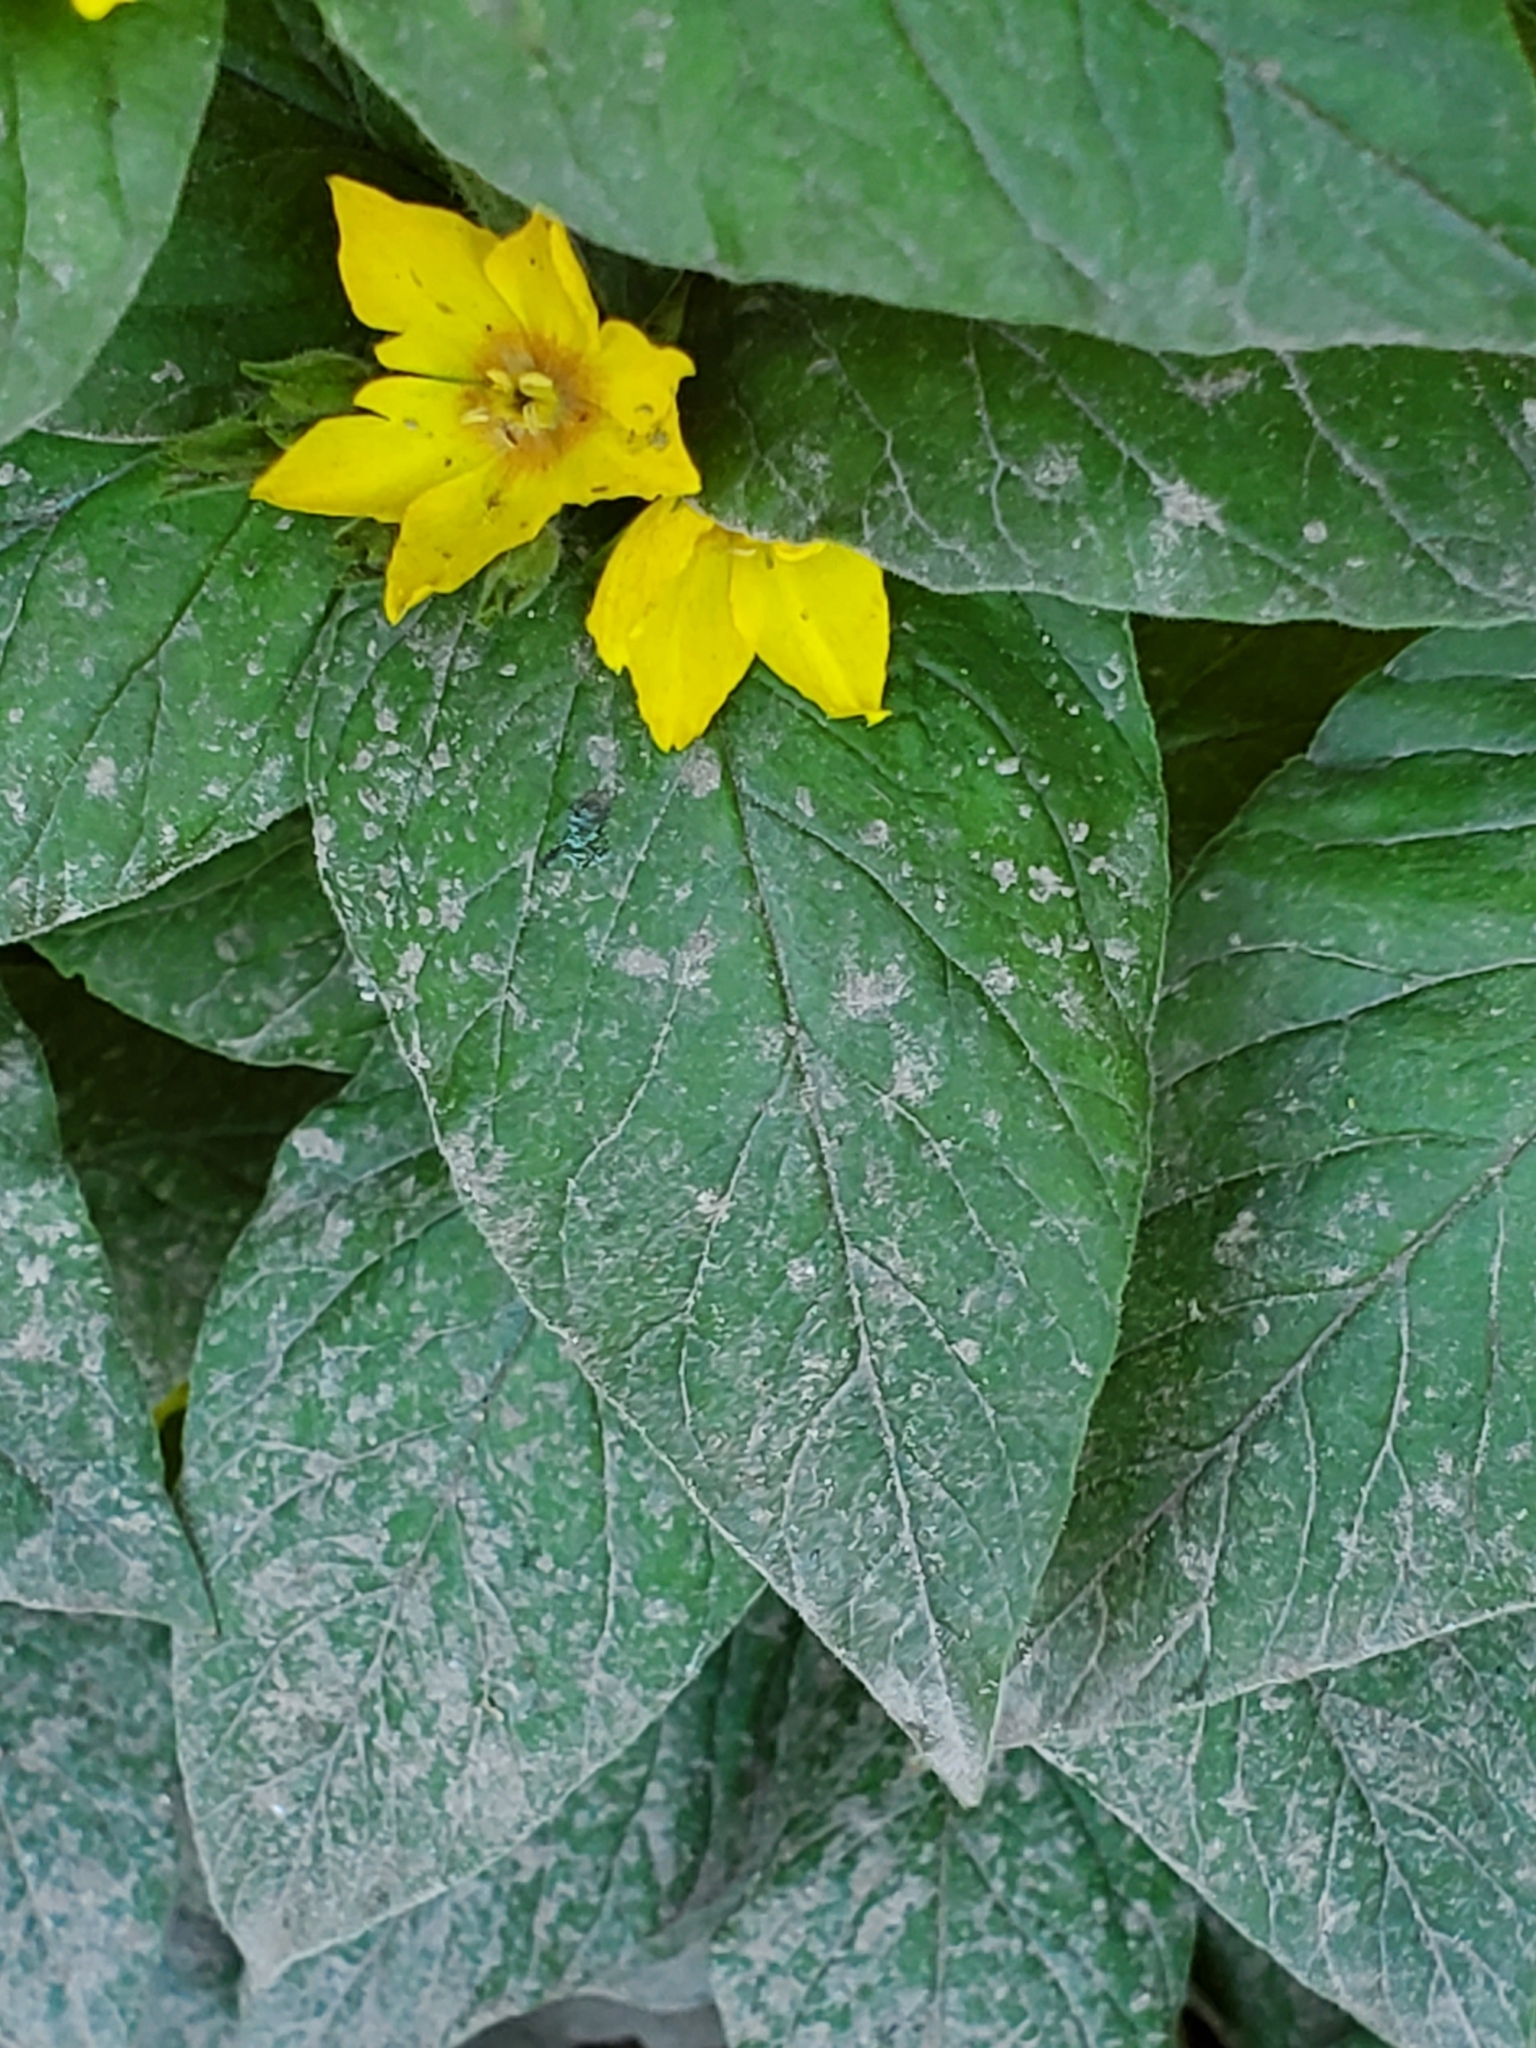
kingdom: Plantae
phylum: Tracheophyta
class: Magnoliopsida
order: Ericales
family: Primulaceae
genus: Lysimachia
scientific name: Lysimachia punctata
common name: Dotted loosestrife
